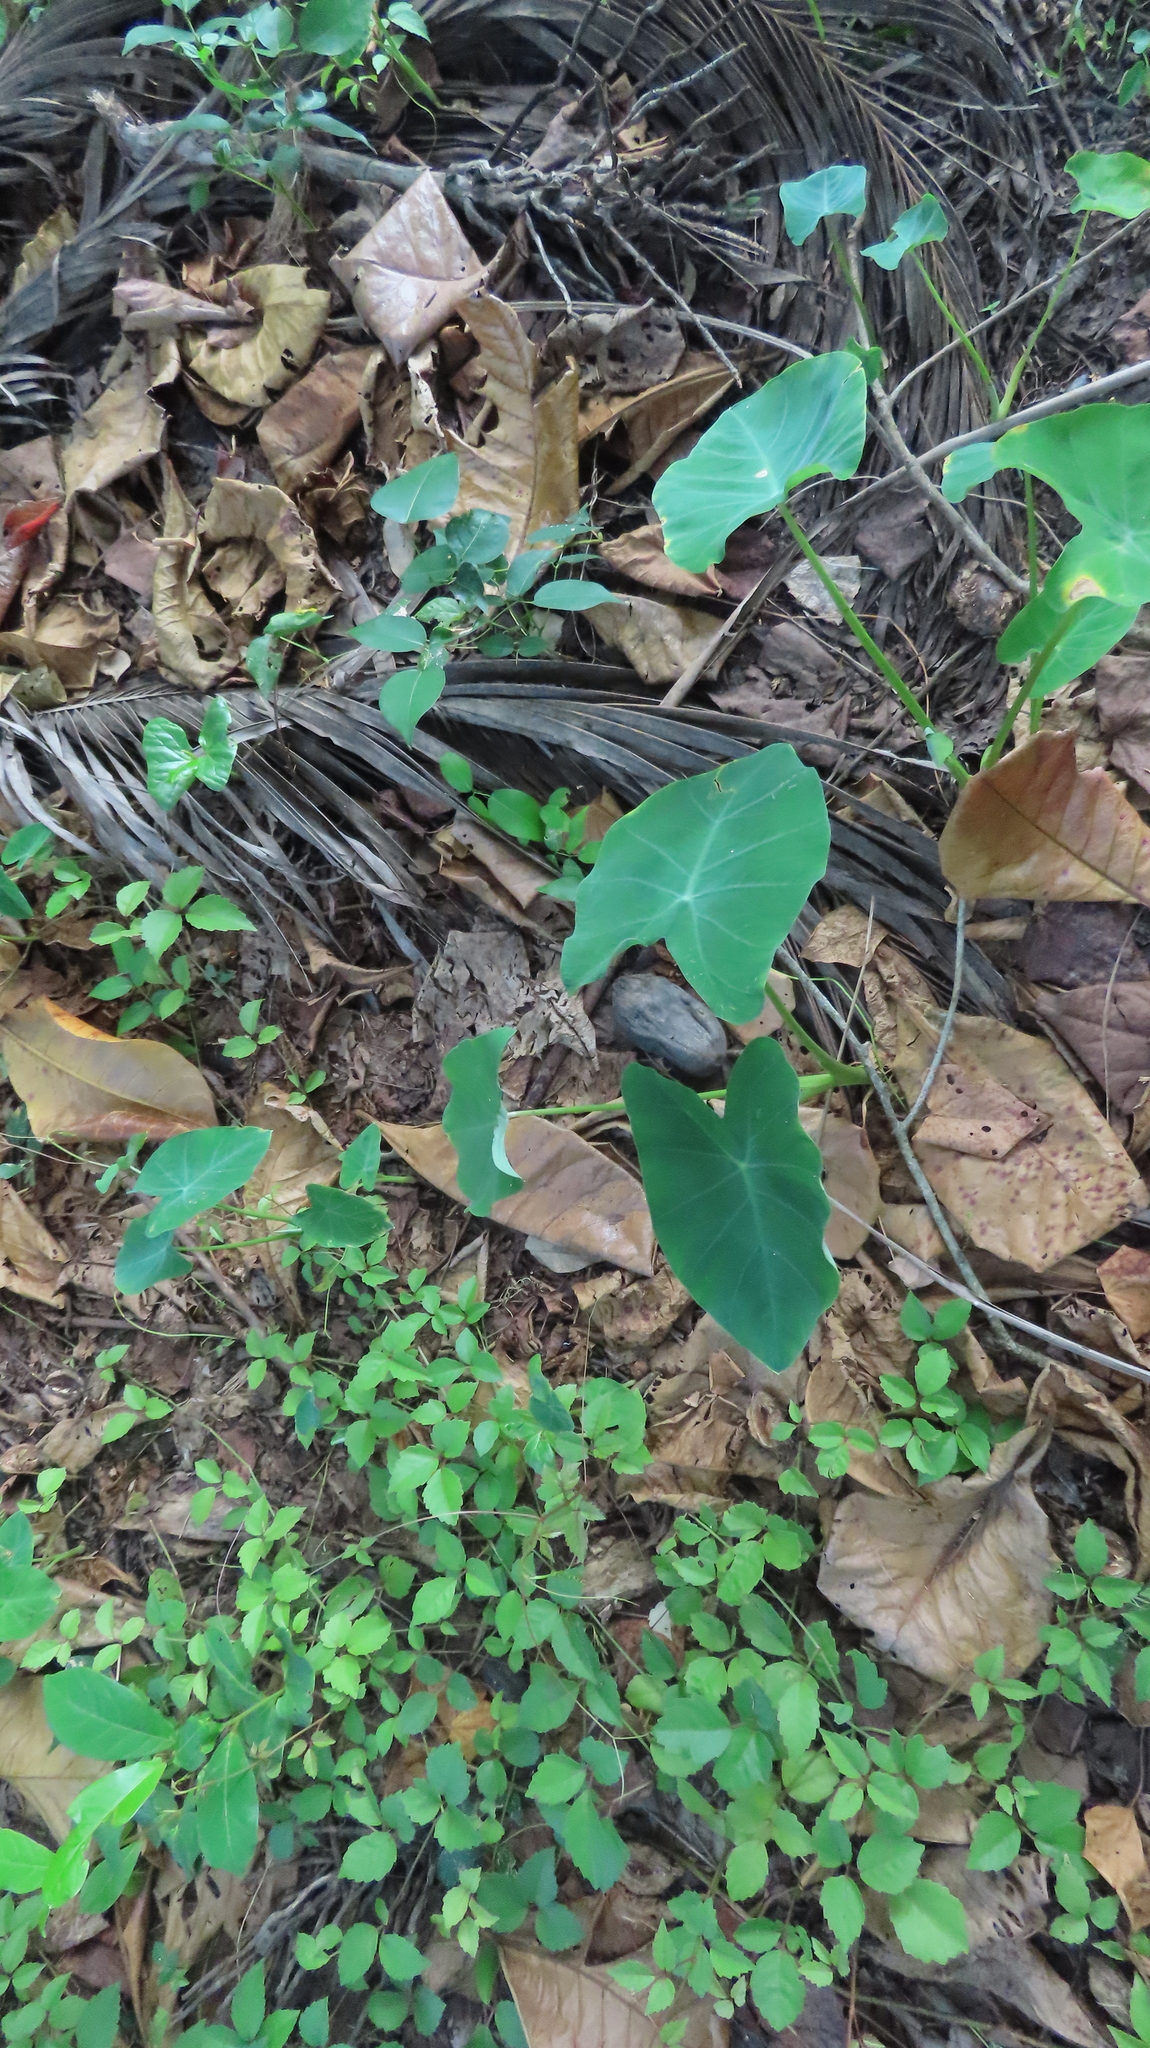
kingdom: Plantae
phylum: Tracheophyta
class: Liliopsida
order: Alismatales
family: Araceae
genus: Colocasia
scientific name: Colocasia esculenta
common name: Taro
